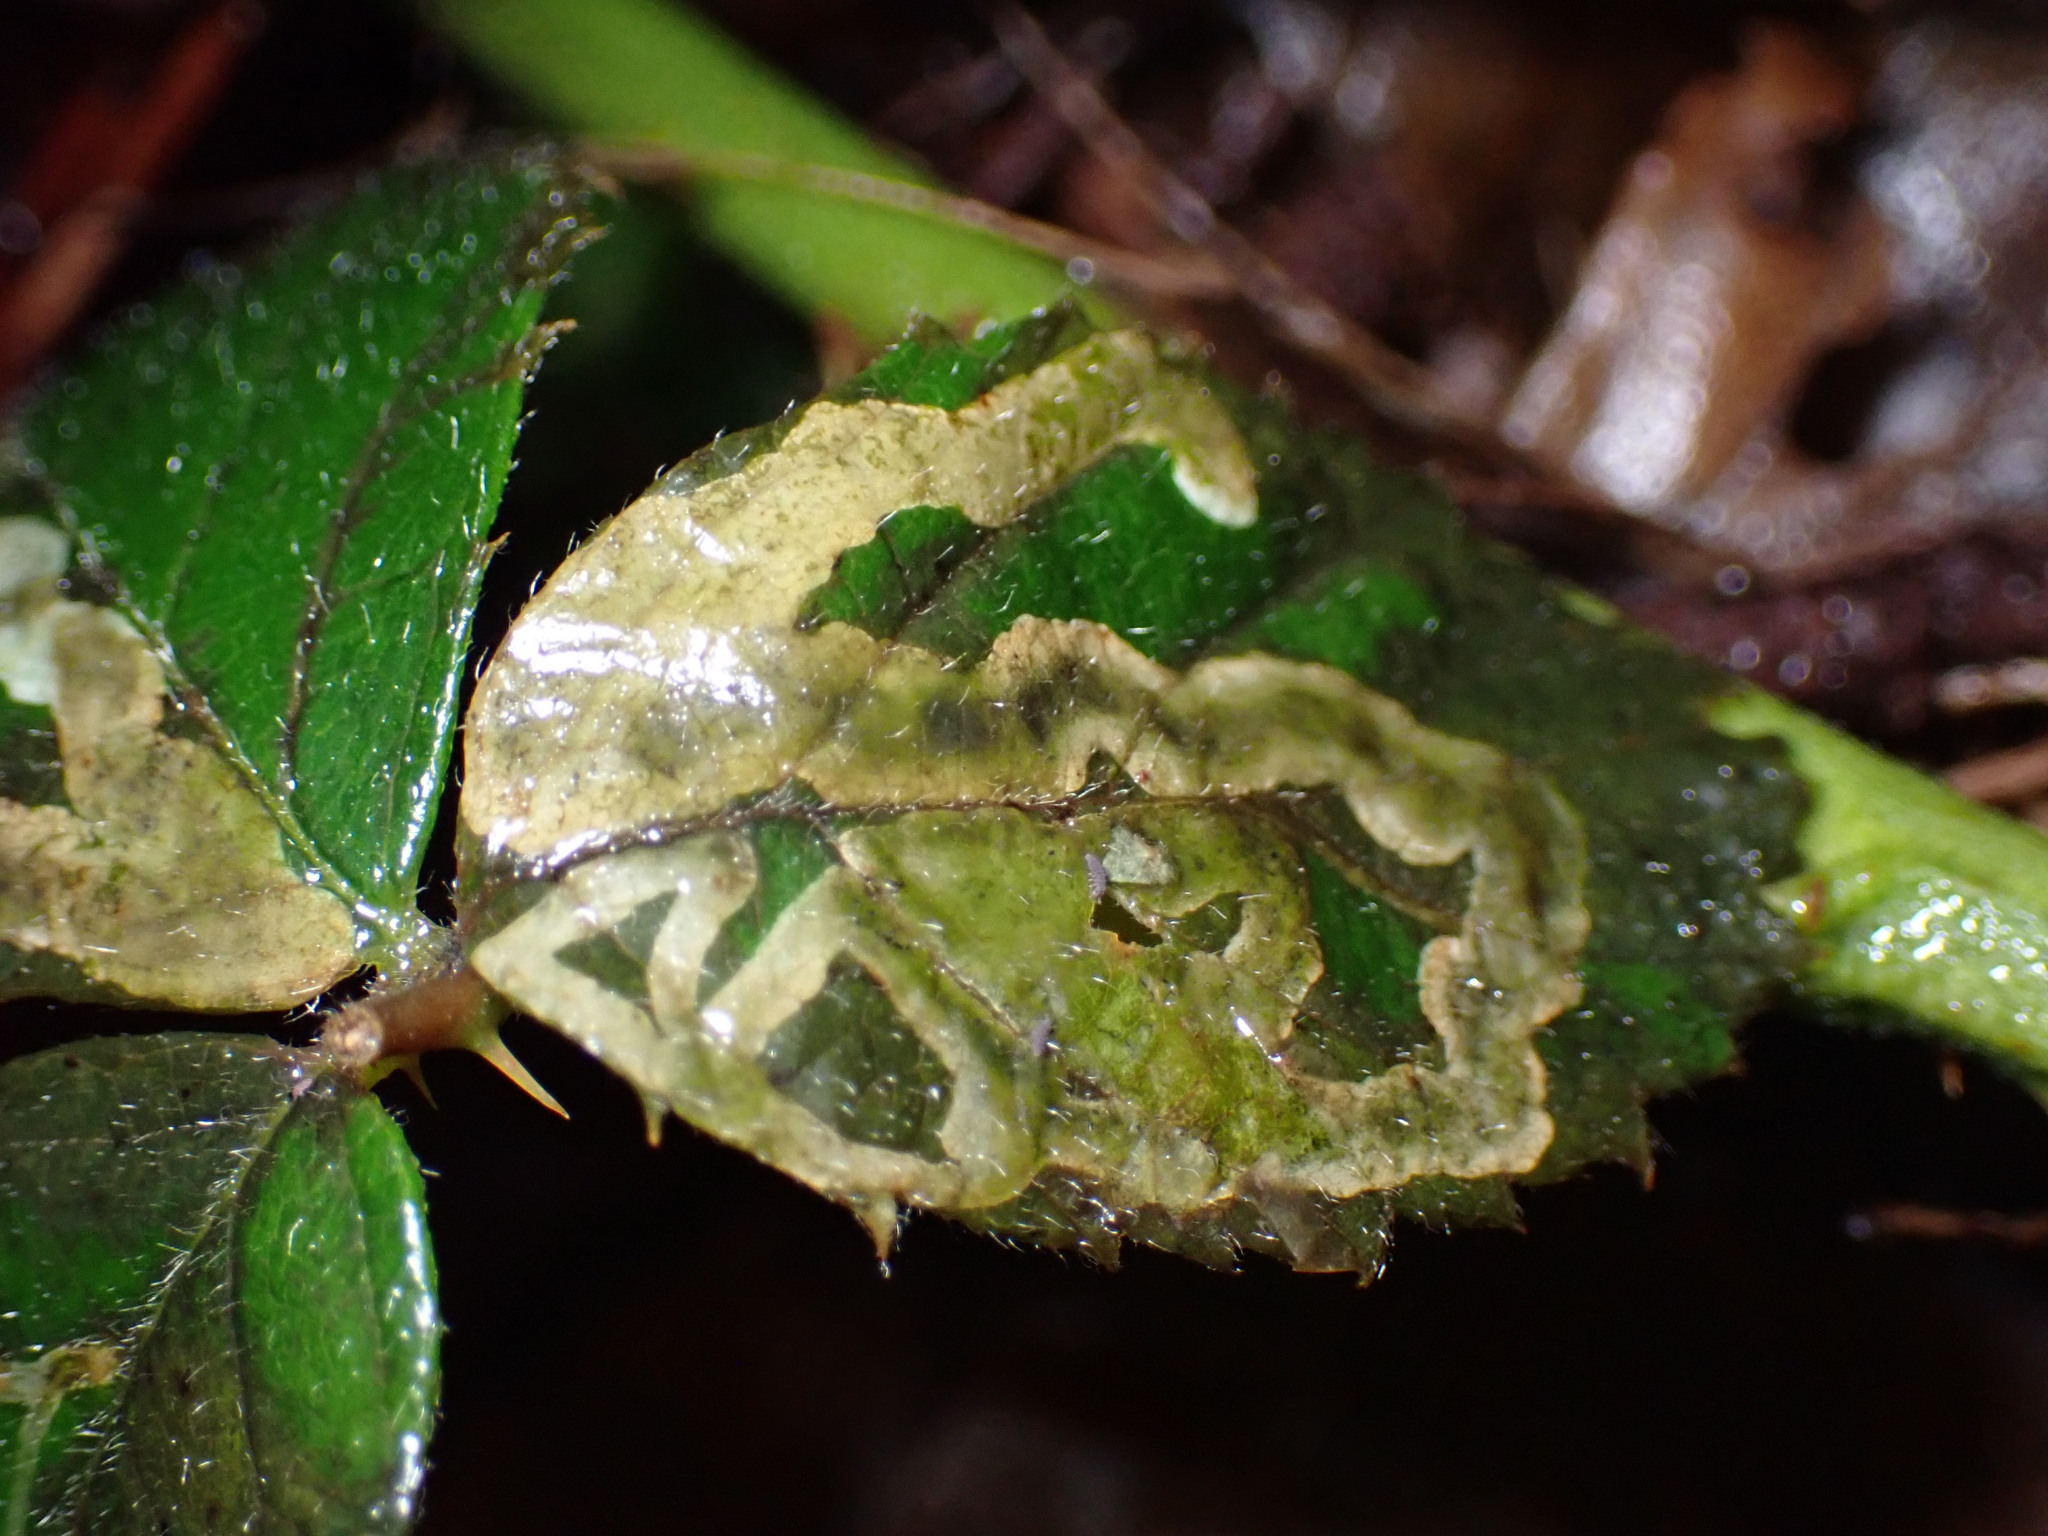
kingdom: Animalia
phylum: Arthropoda
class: Insecta
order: Diptera
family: Agromyzidae
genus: Agromyza
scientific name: Agromyza vockerothi
